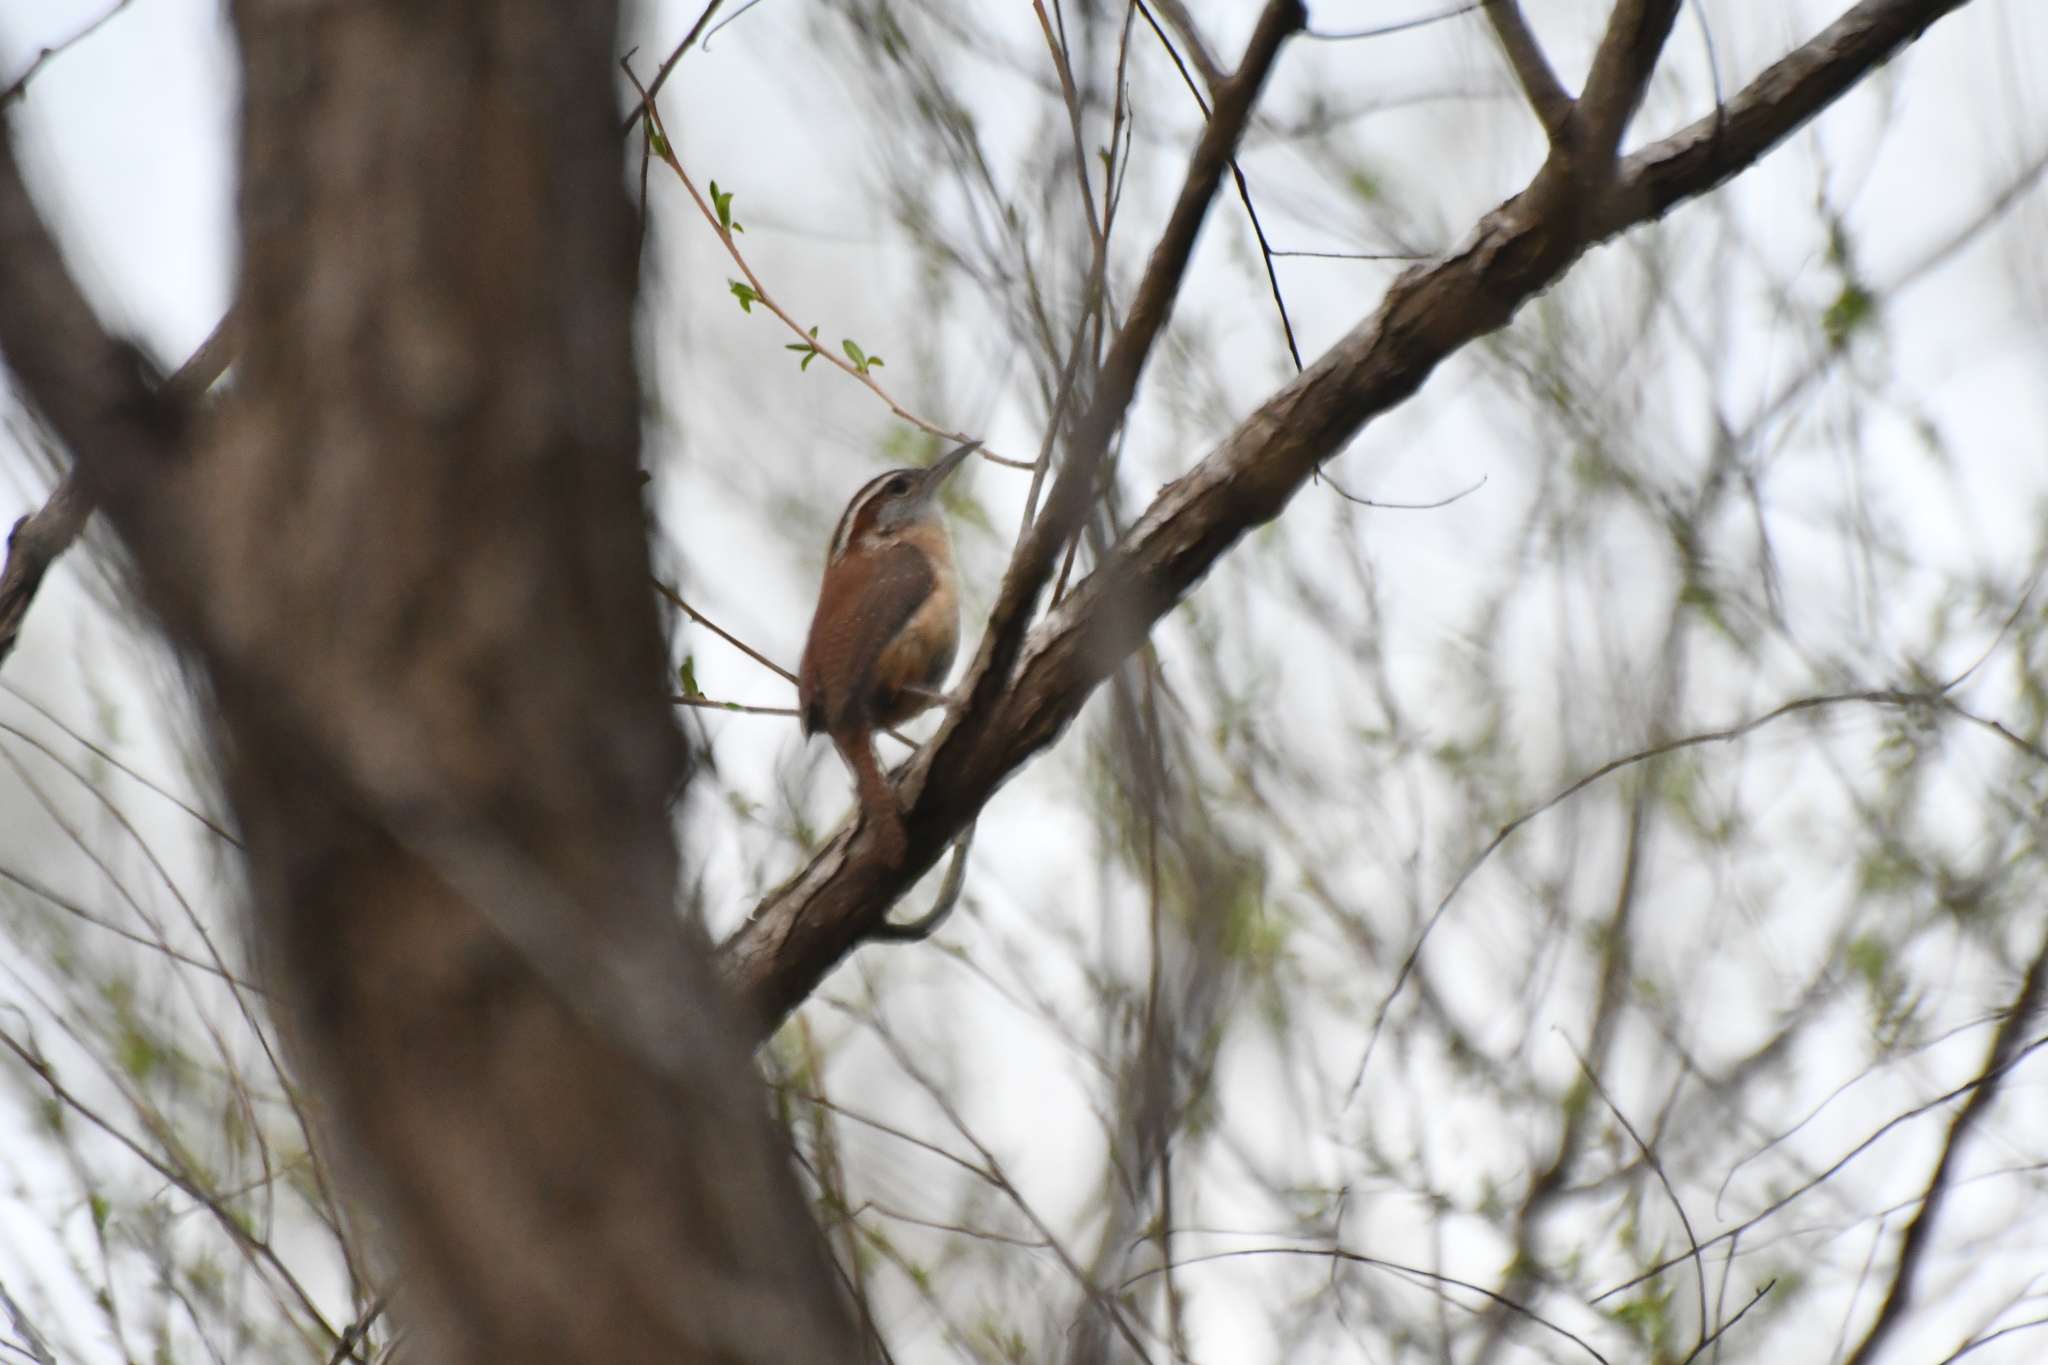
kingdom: Animalia
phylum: Chordata
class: Aves
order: Passeriformes
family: Troglodytidae
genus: Thryothorus
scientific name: Thryothorus ludovicianus
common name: Carolina wren
